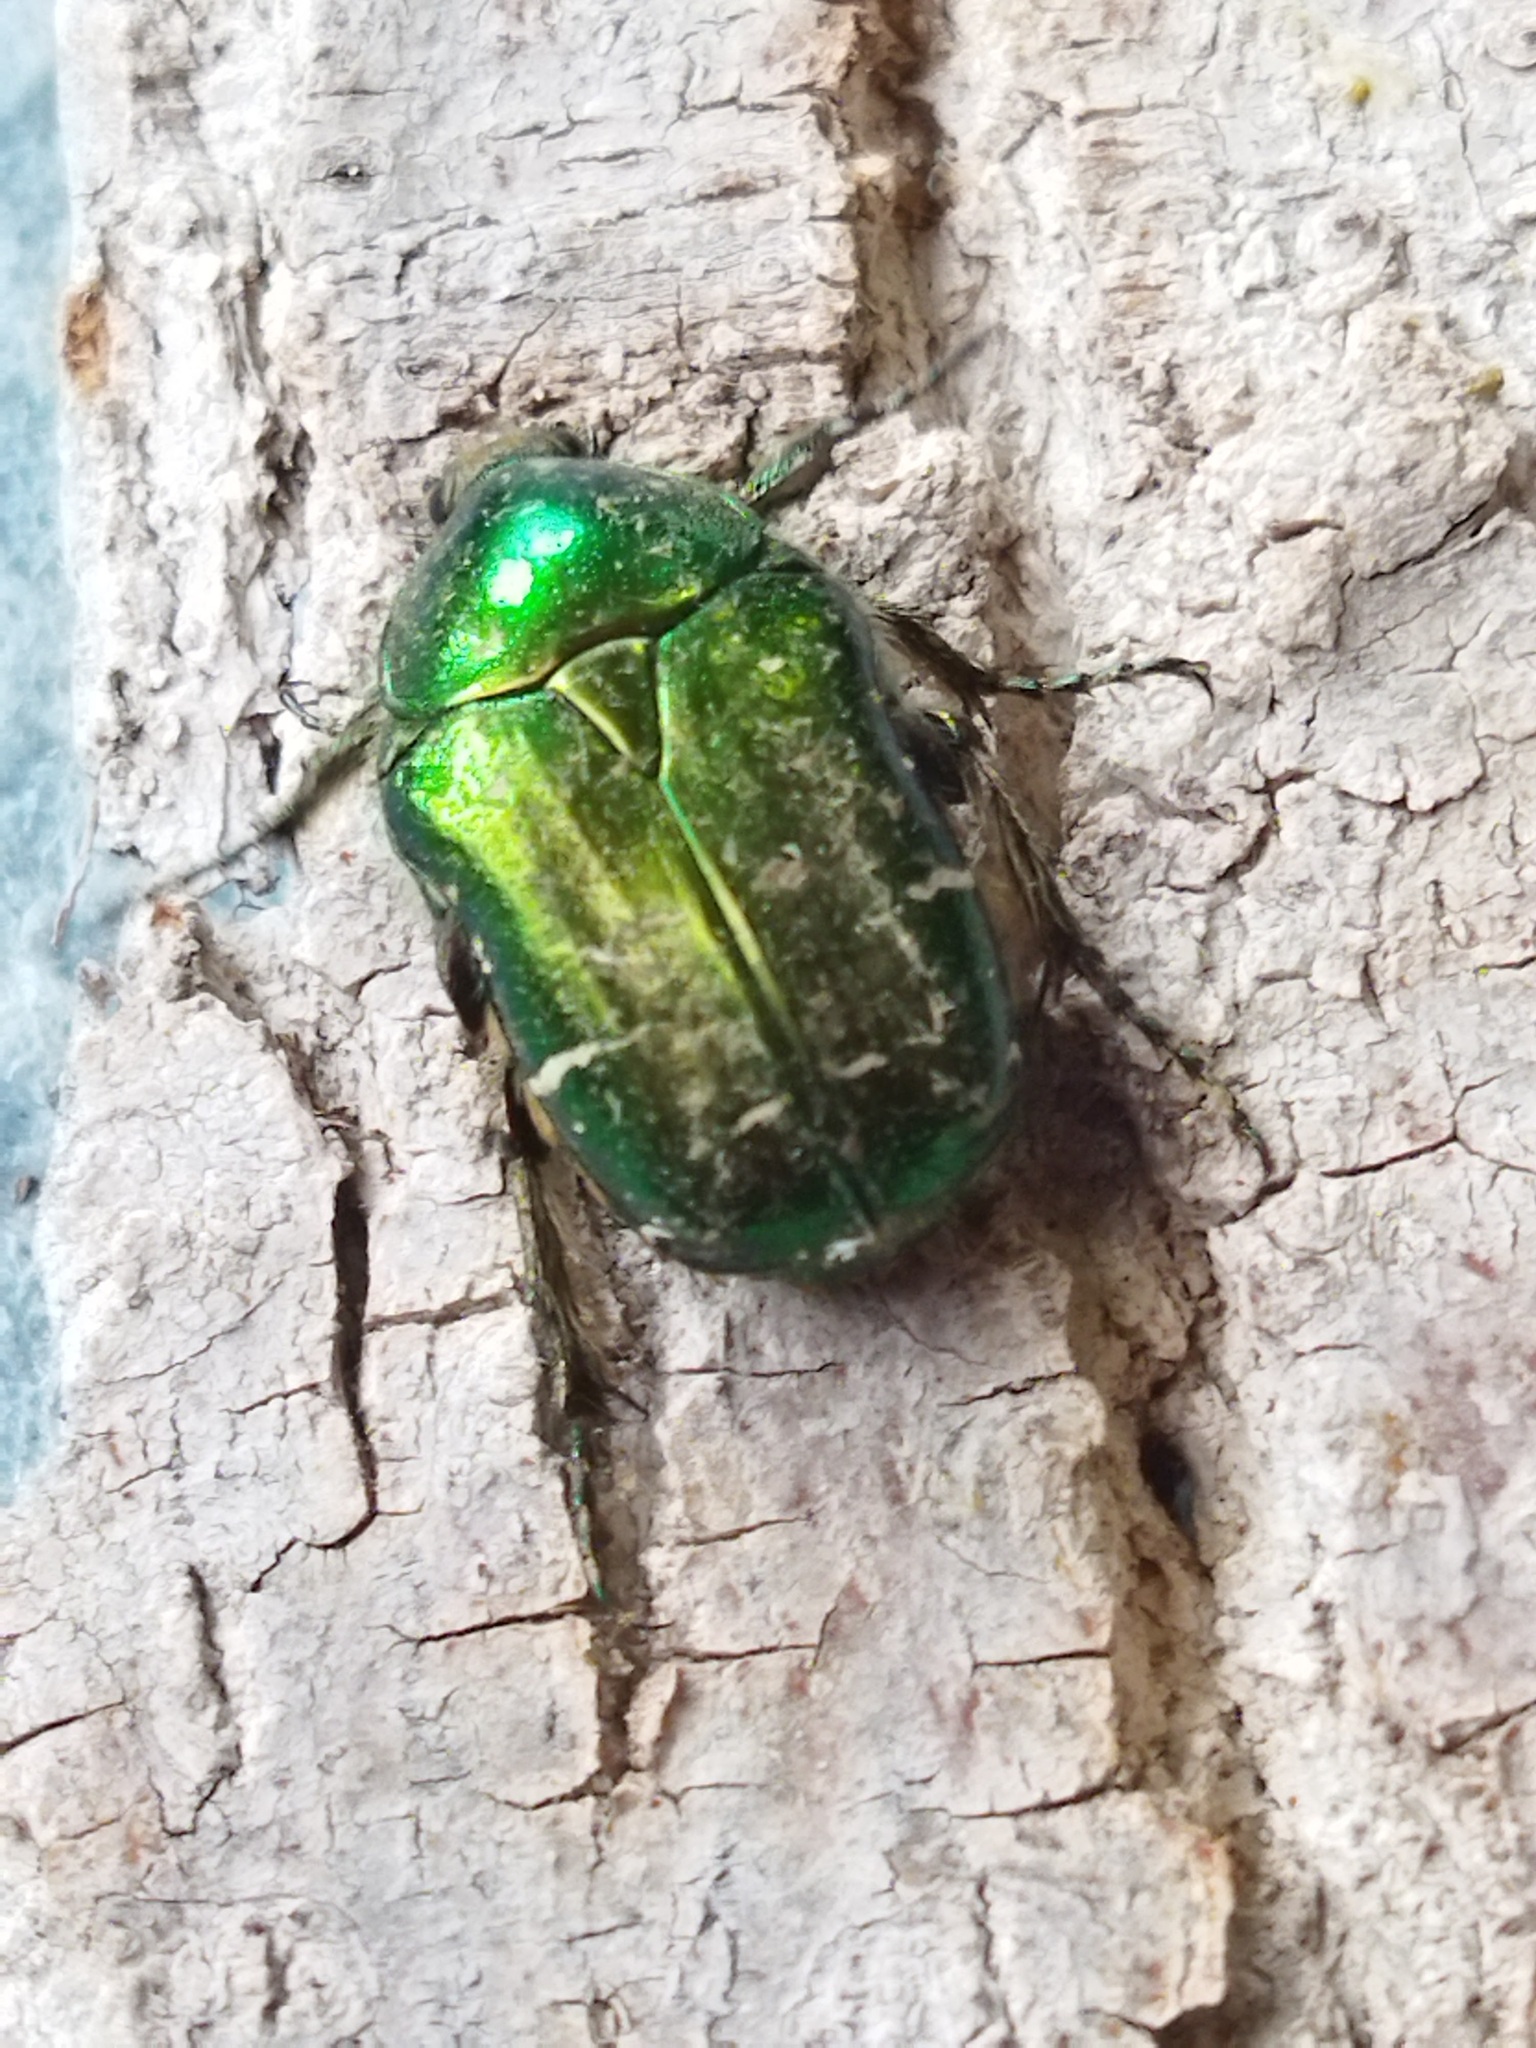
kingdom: Animalia
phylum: Arthropoda
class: Insecta
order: Coleoptera
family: Scarabaeidae
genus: Cetonia
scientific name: Cetonia aurata
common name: Rose chafer
